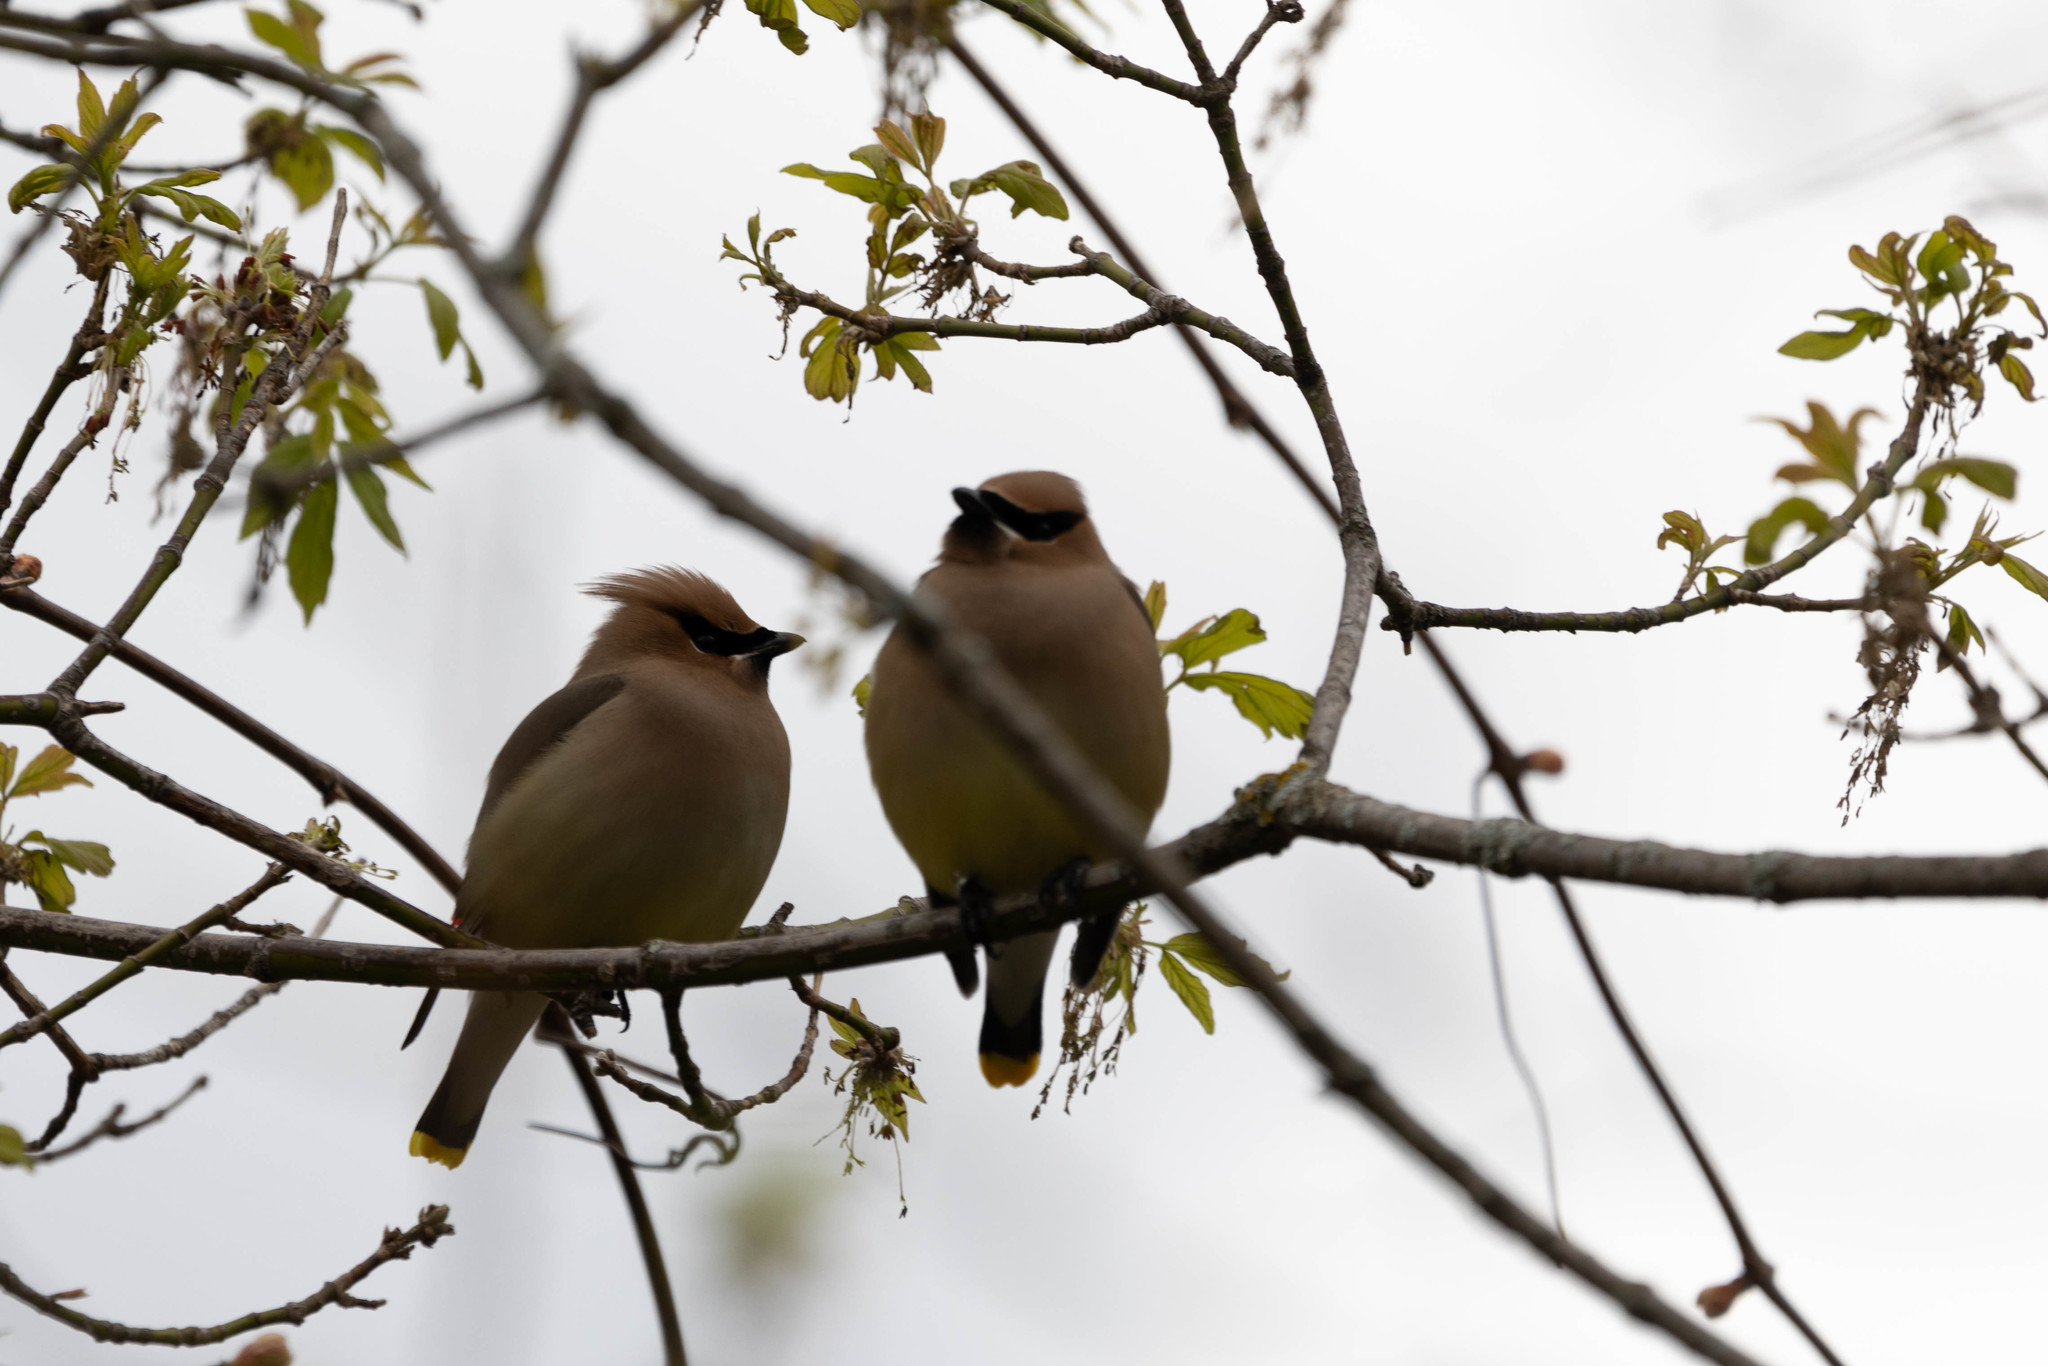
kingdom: Animalia
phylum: Chordata
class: Aves
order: Passeriformes
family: Bombycillidae
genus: Bombycilla
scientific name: Bombycilla cedrorum
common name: Cedar waxwing
